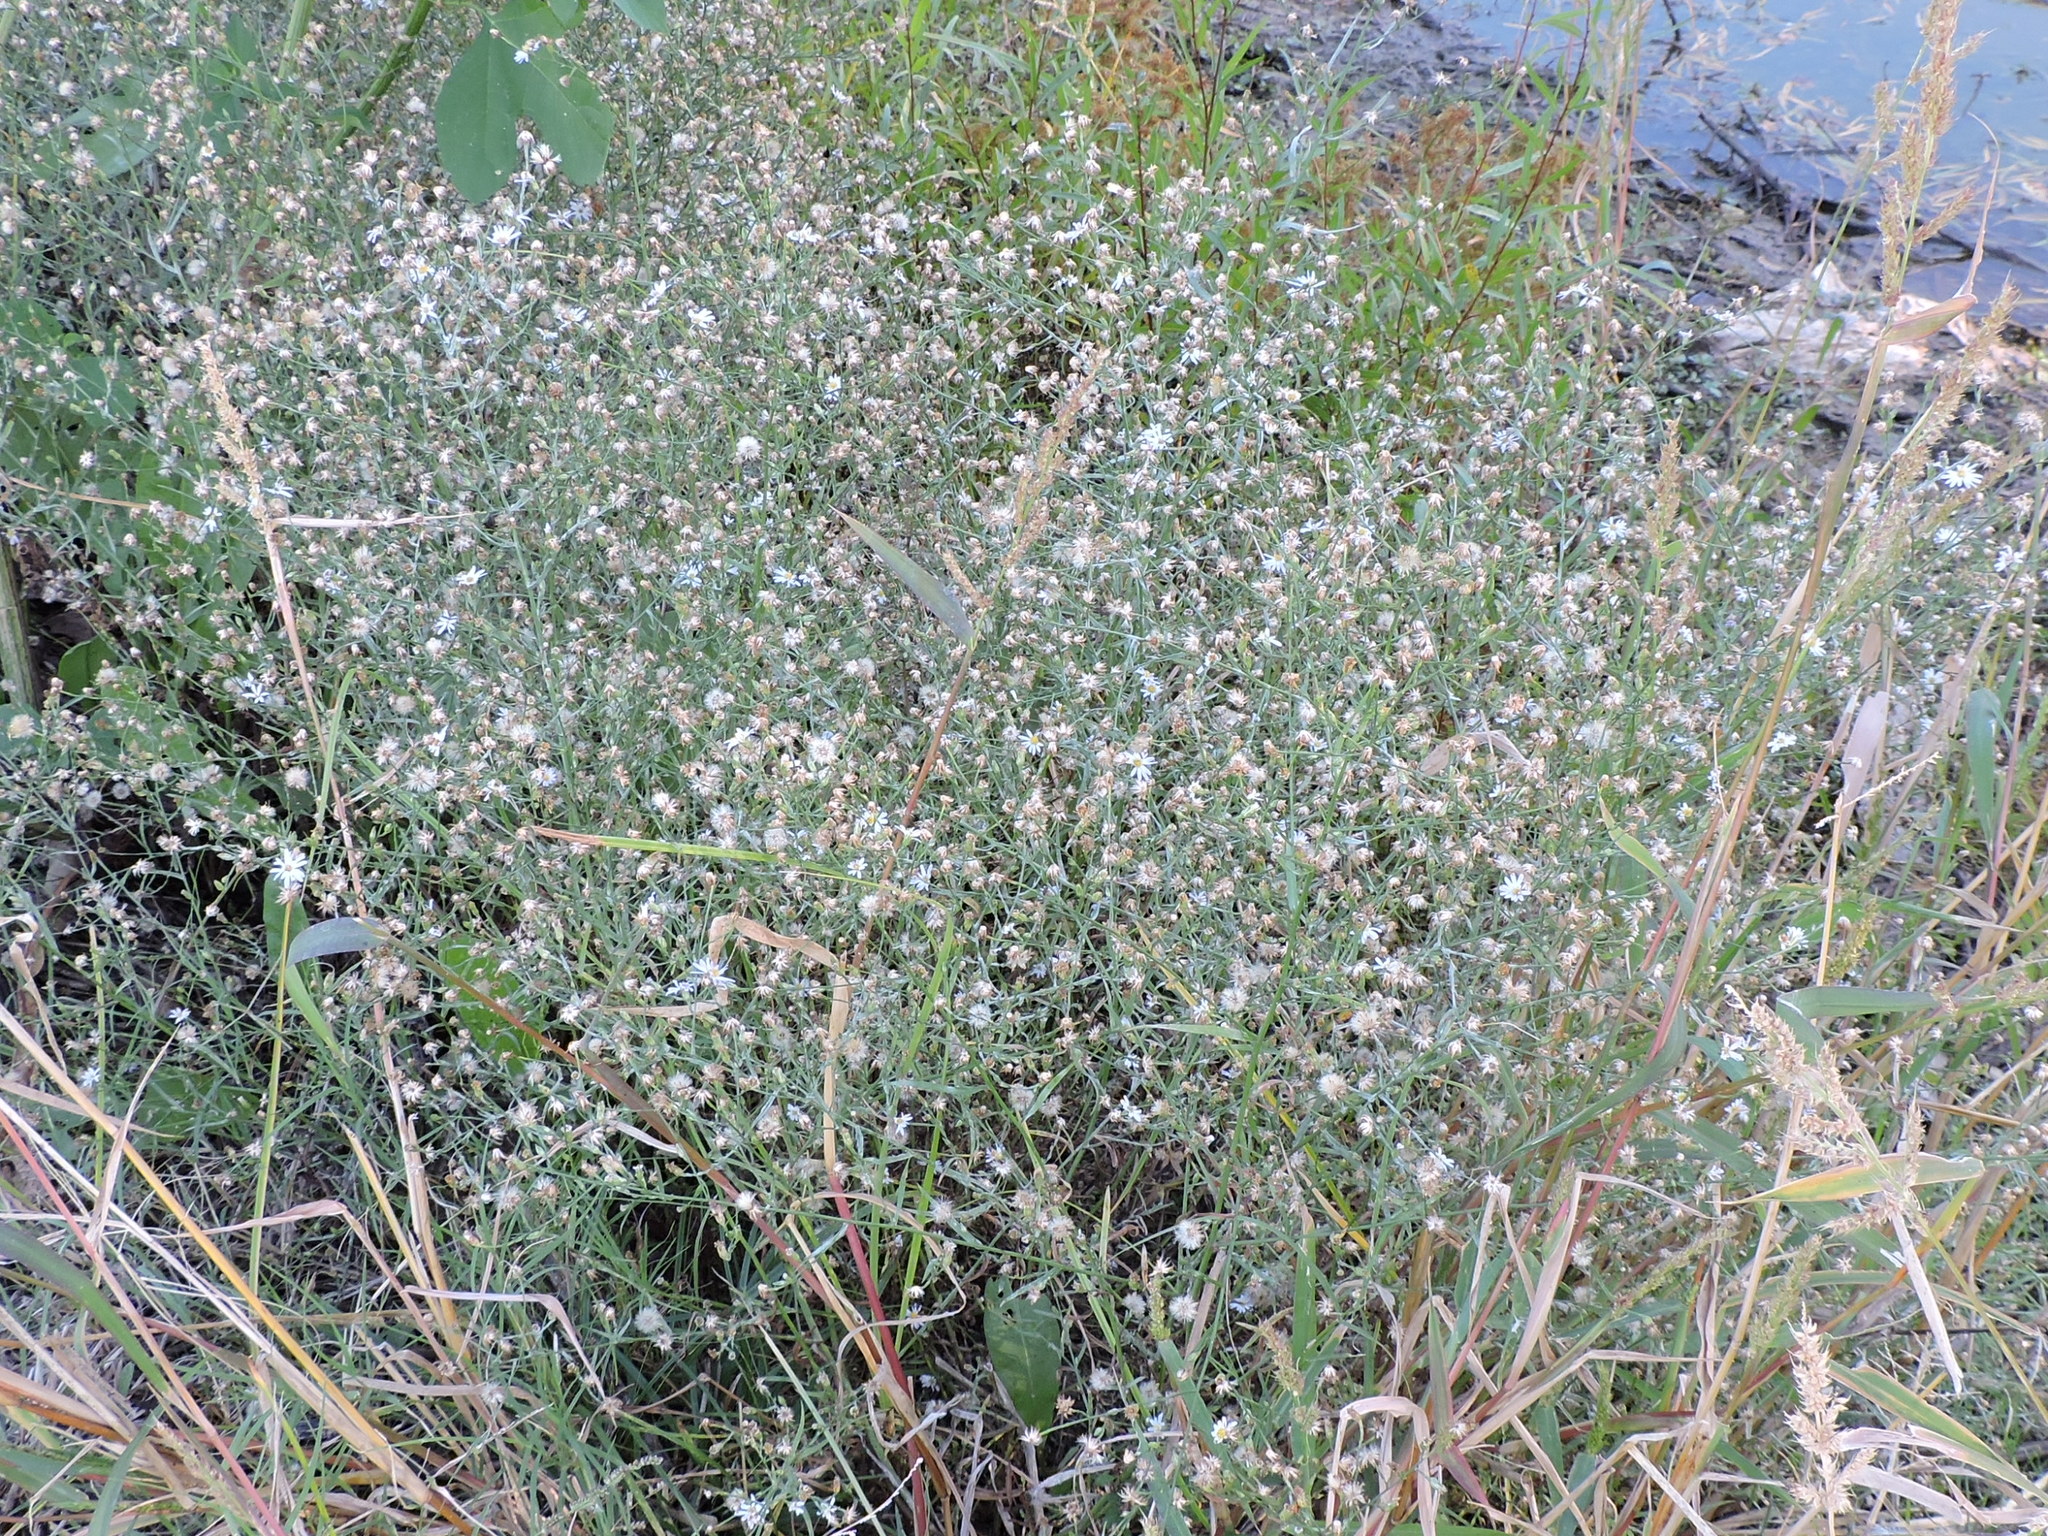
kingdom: Plantae
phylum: Tracheophyta
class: Magnoliopsida
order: Asterales
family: Asteraceae
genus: Symphyotrichum
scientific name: Symphyotrichum divaricatum
